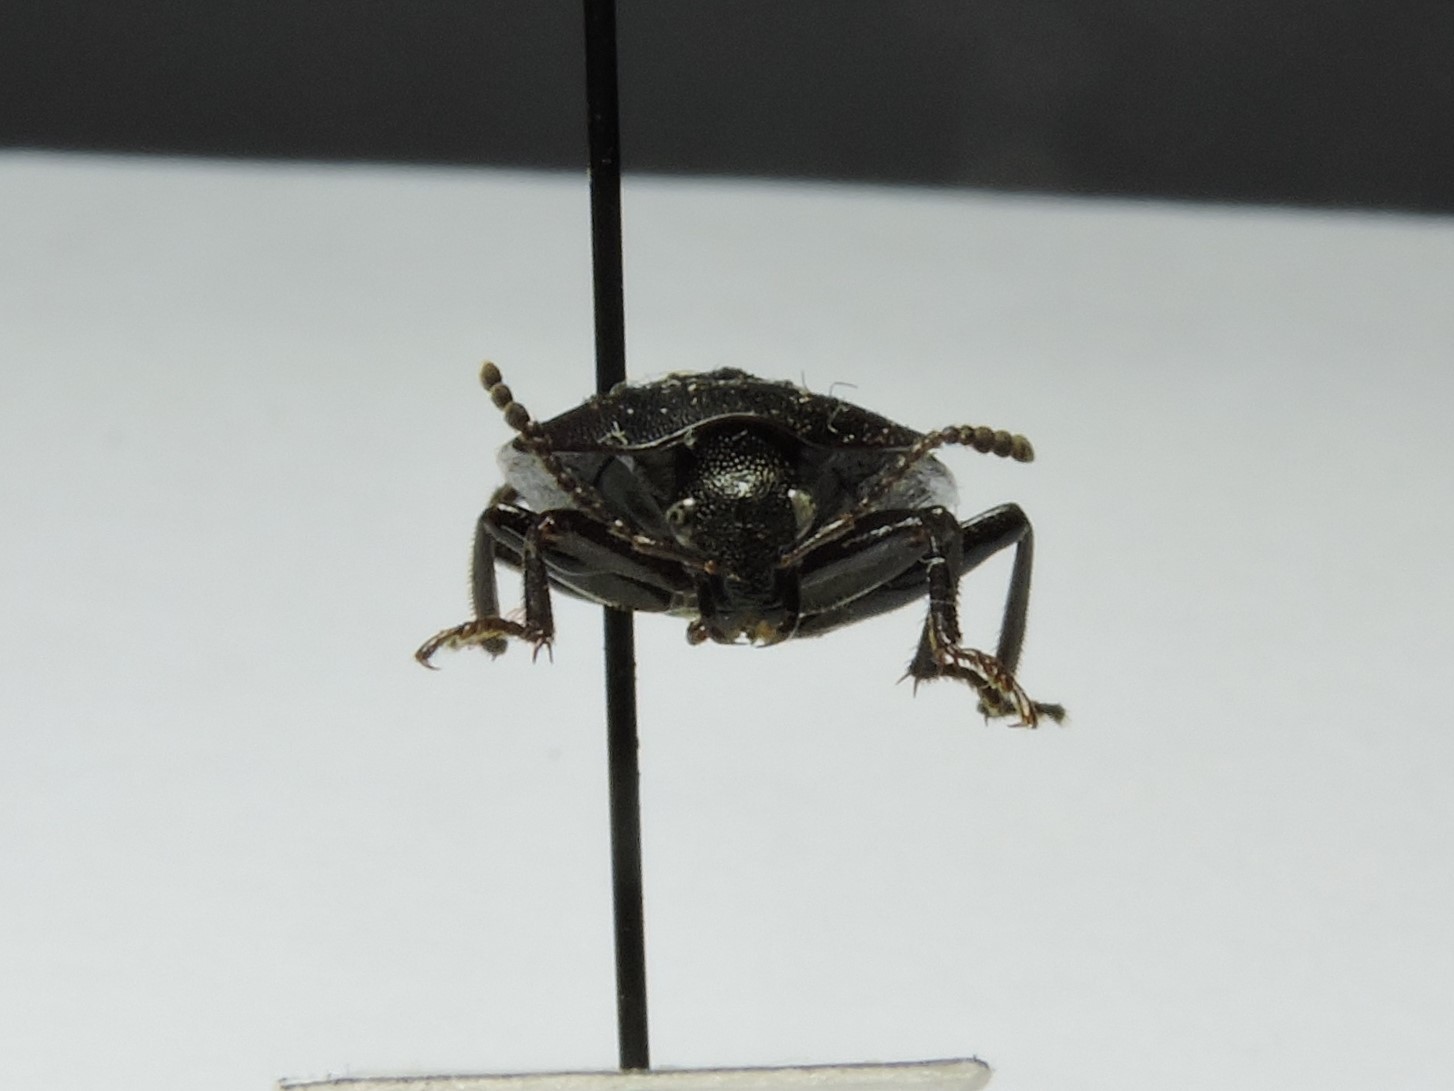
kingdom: Animalia
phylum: Arthropoda
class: Insecta
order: Coleoptera
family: Staphylinidae
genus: Silpha
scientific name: Silpha atrata
